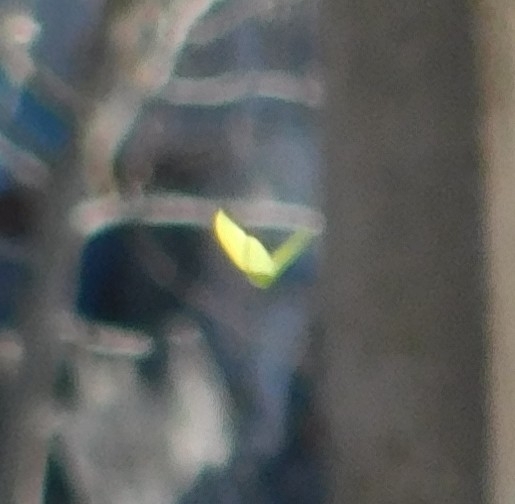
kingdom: Animalia
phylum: Arthropoda
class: Insecta
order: Lepidoptera
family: Pieridae
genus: Gonepteryx
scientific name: Gonepteryx rhamni
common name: Brimstone
